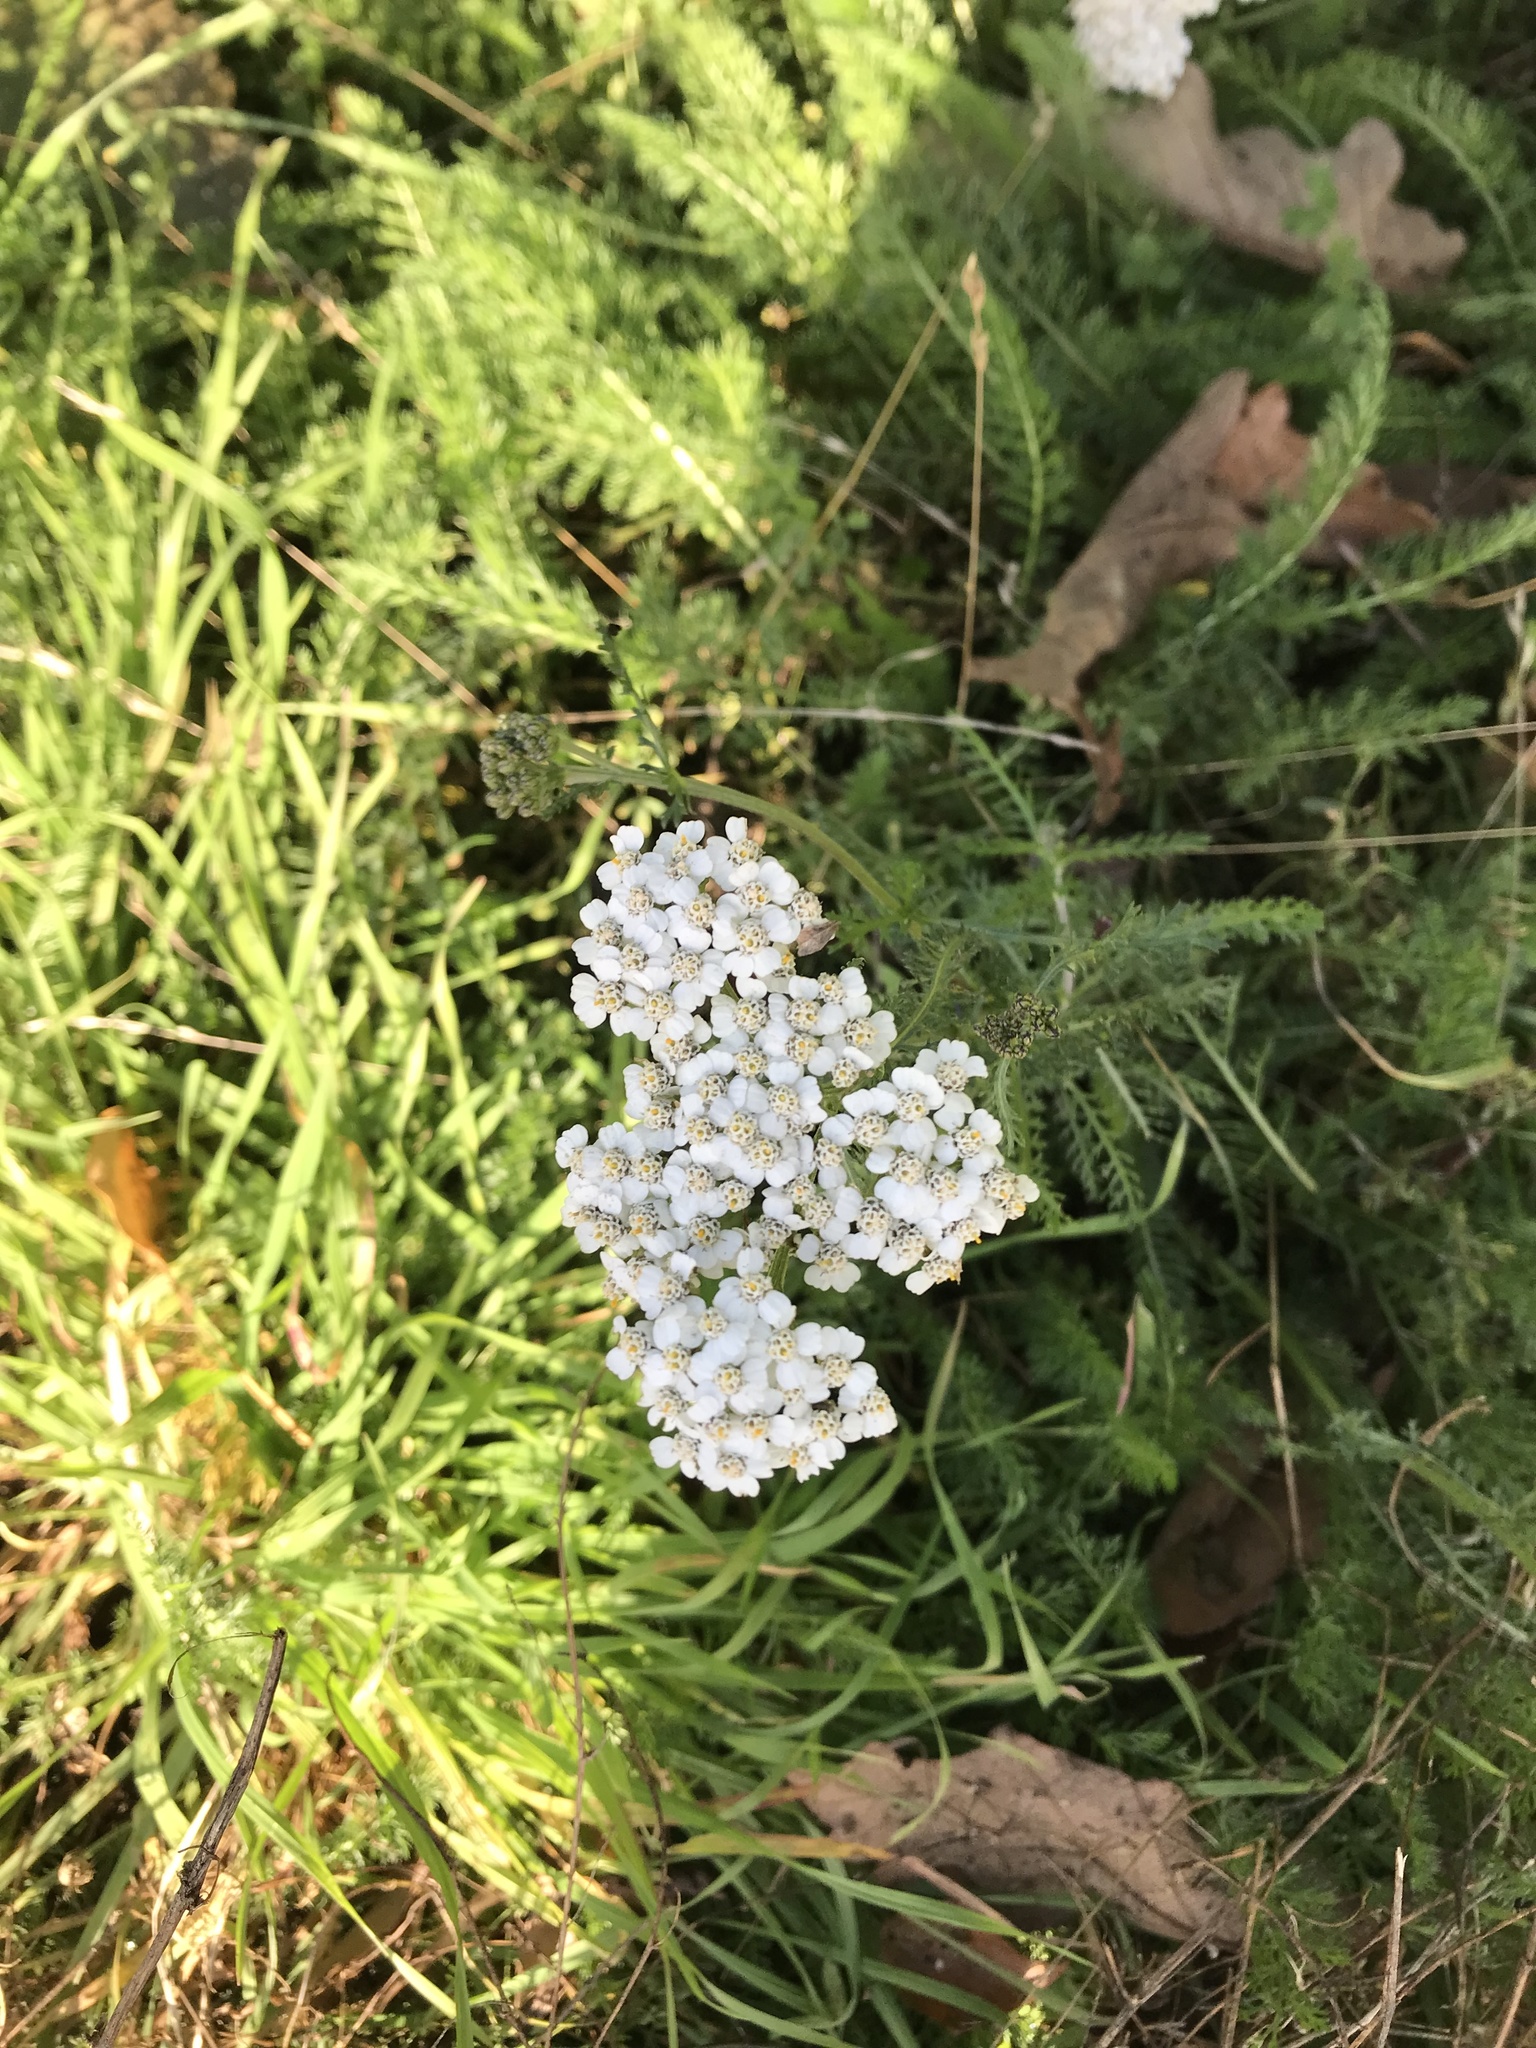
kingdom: Plantae
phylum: Tracheophyta
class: Magnoliopsida
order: Asterales
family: Asteraceae
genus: Achillea
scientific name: Achillea millefolium
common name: Yarrow
